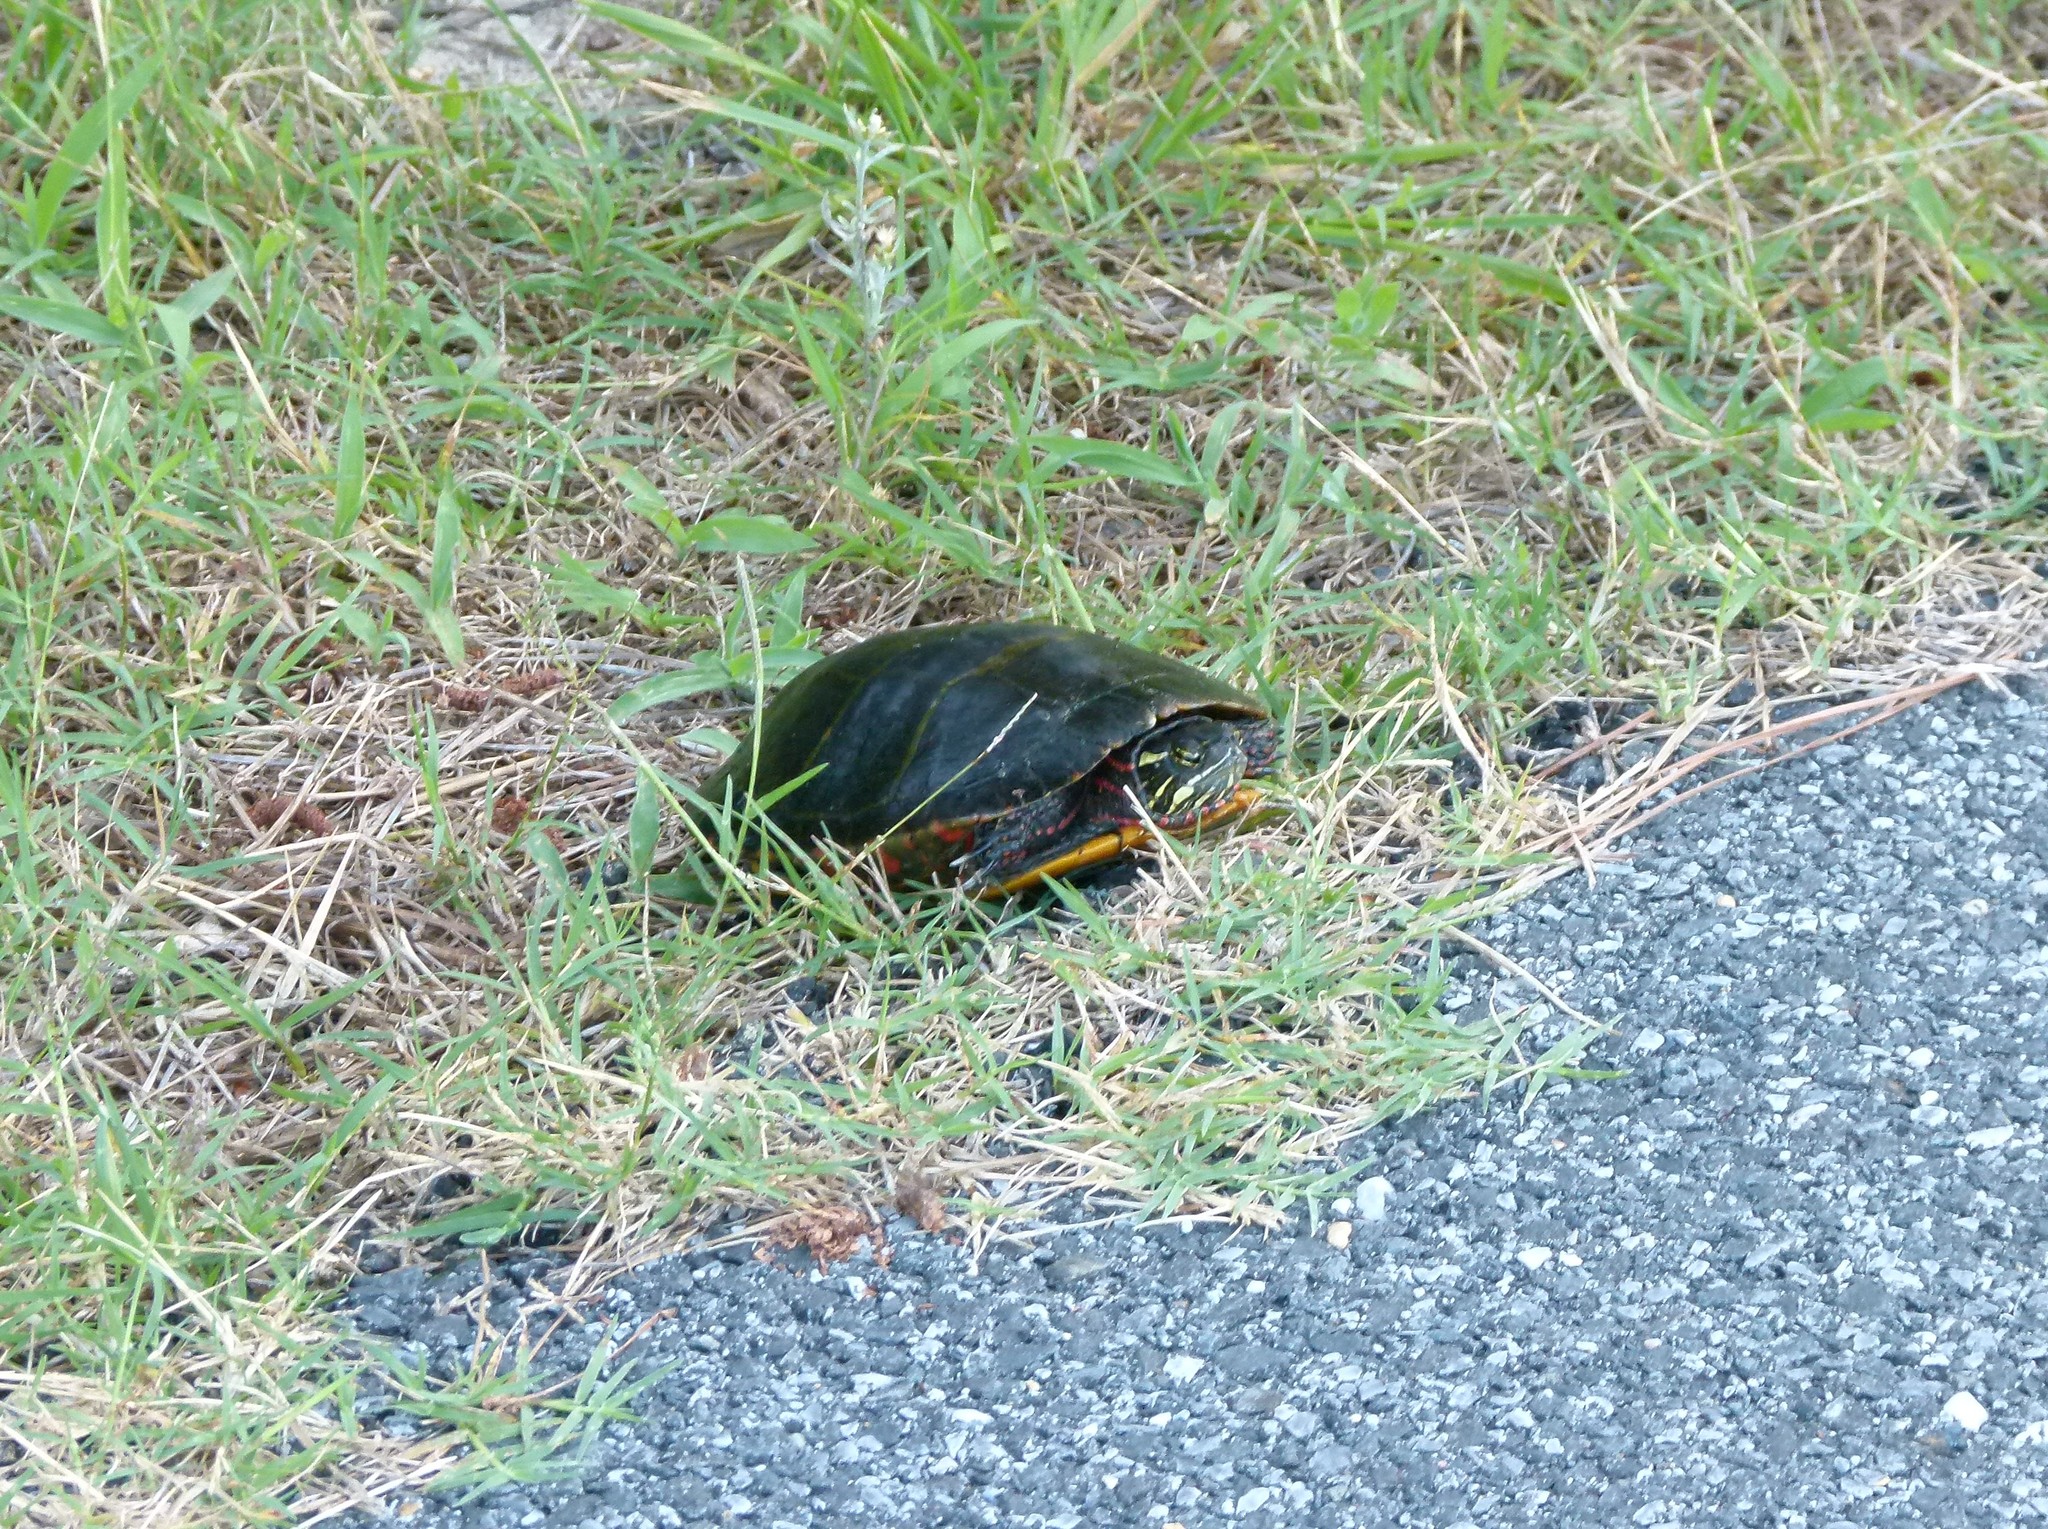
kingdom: Animalia
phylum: Chordata
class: Testudines
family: Emydidae
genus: Chrysemys
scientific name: Chrysemys picta
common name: Painted turtle
